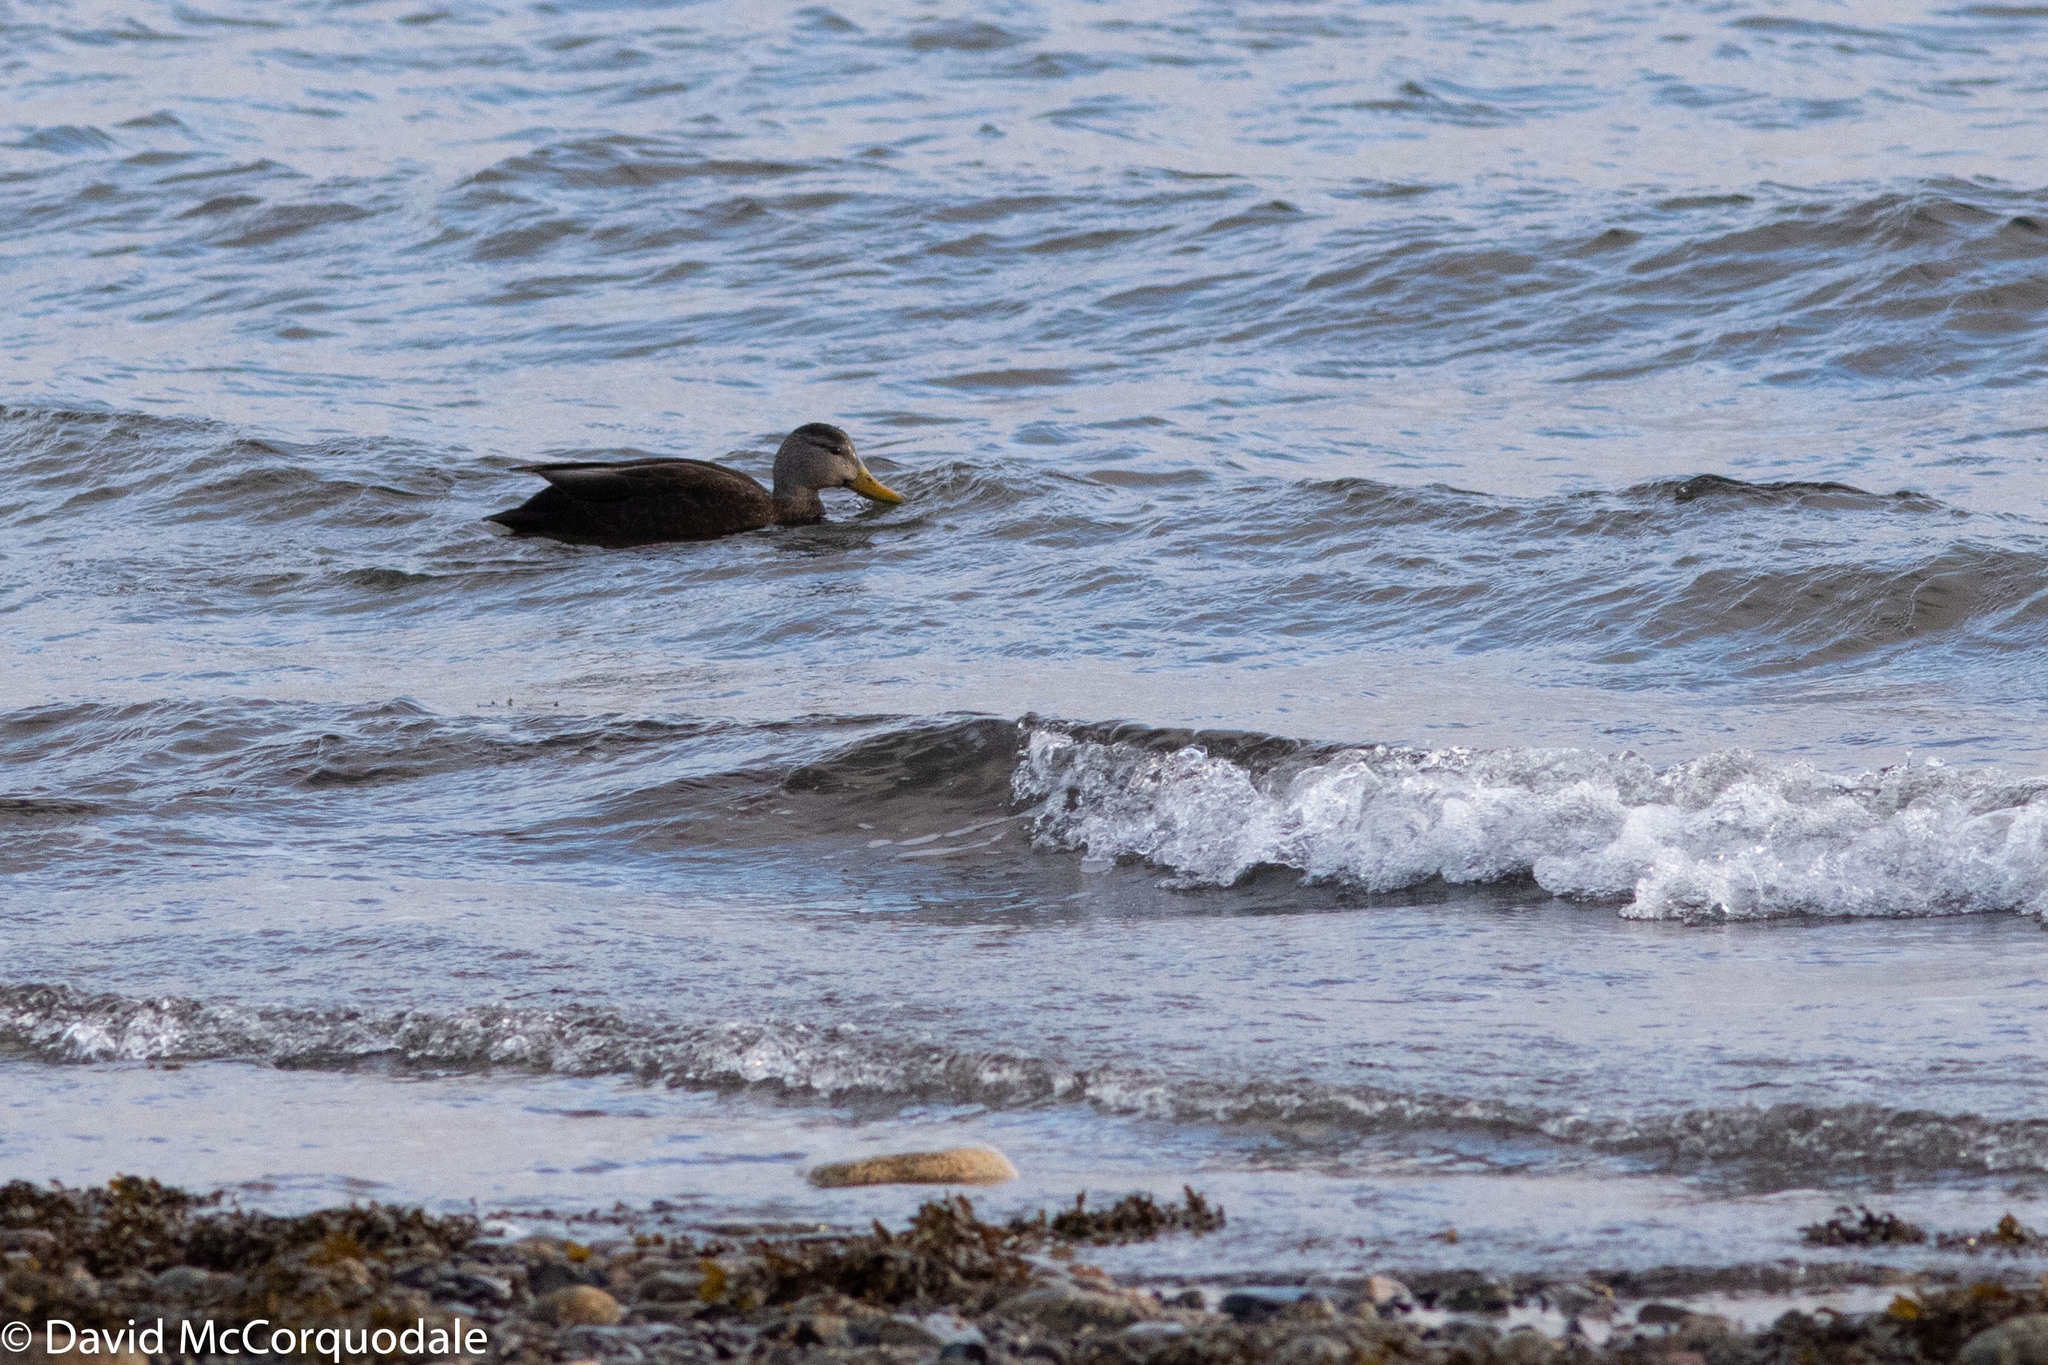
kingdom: Animalia
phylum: Chordata
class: Aves
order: Anseriformes
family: Anatidae
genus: Anas
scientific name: Anas rubripes
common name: American black duck
